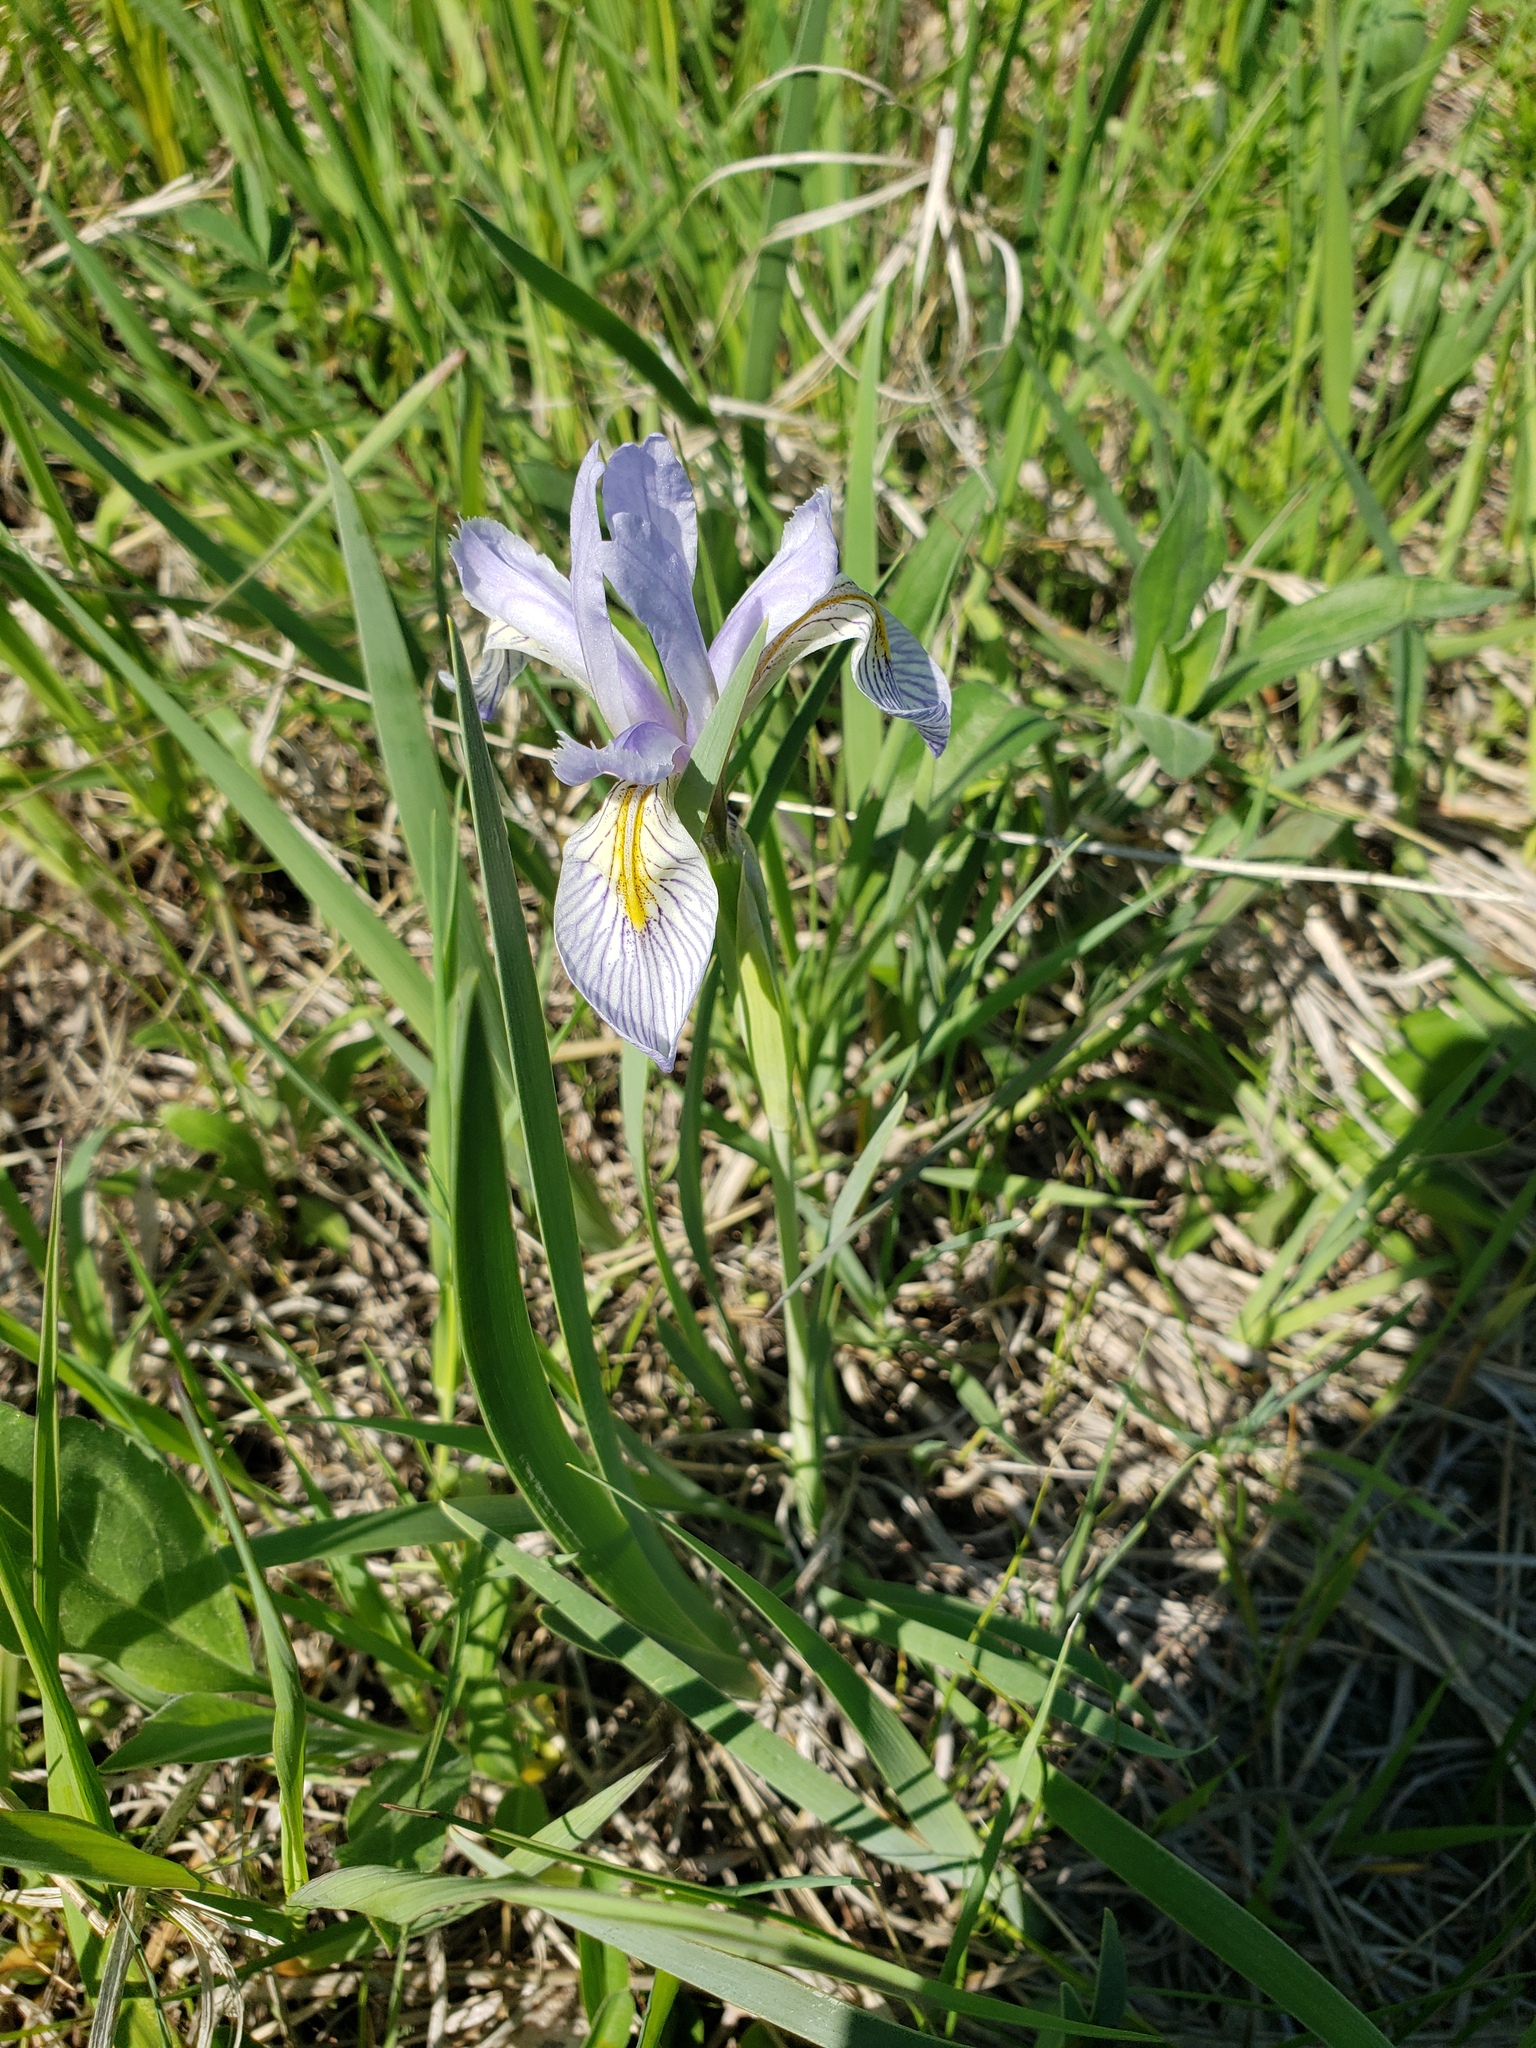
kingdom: Plantae
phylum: Tracheophyta
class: Liliopsida
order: Asparagales
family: Iridaceae
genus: Iris
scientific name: Iris missouriensis
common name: Rocky mountain iris
